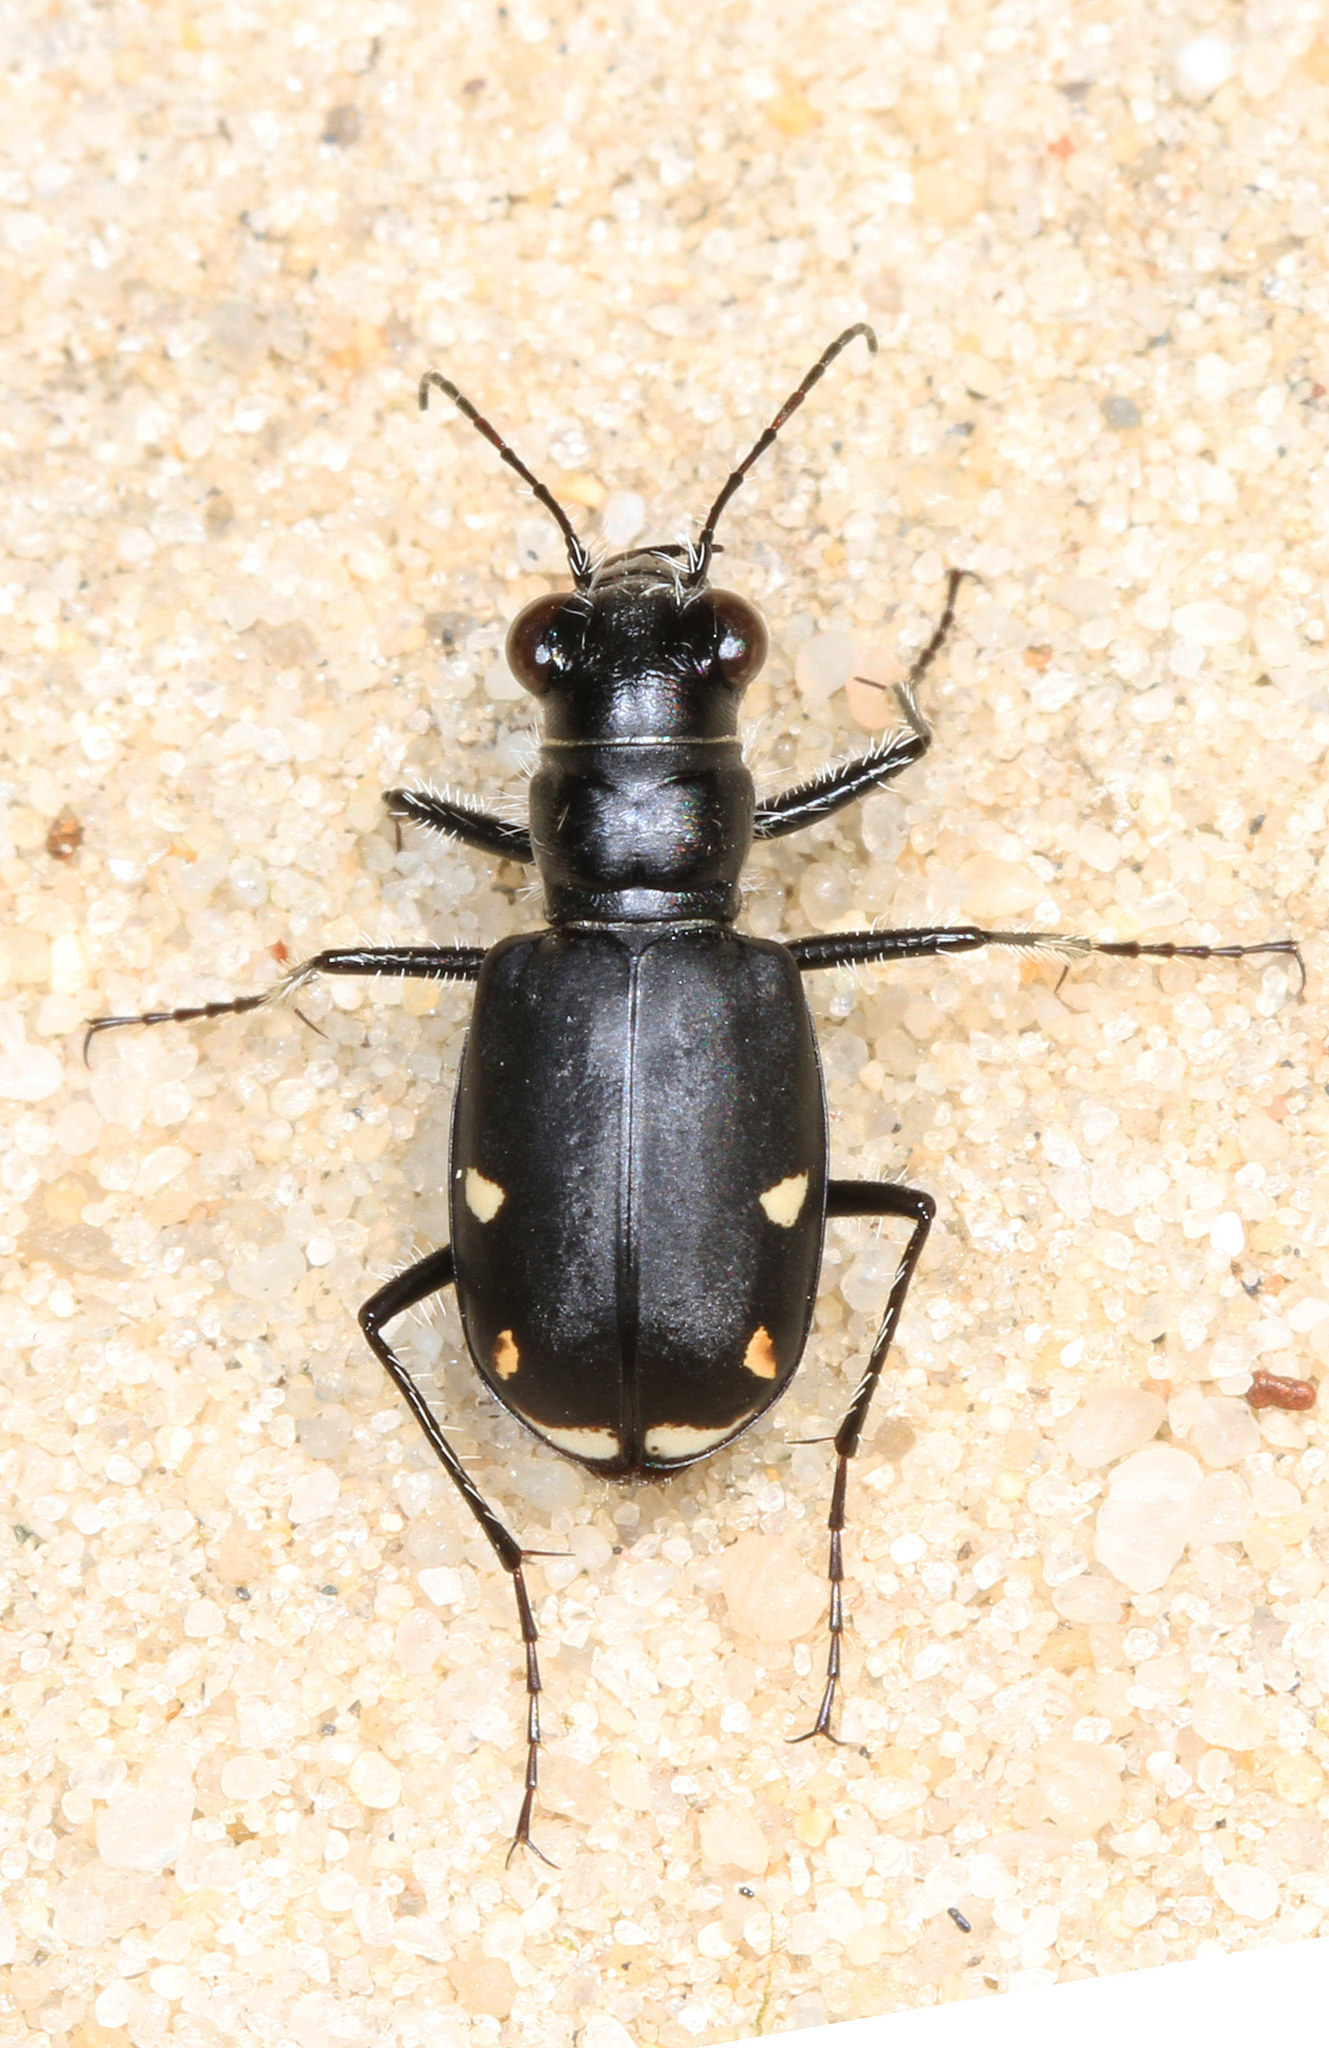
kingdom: Animalia
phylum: Arthropoda
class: Insecta
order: Coleoptera
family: Carabidae
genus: Cicindela
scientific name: Cicindela scutellaris
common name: Festive tiger beetle
